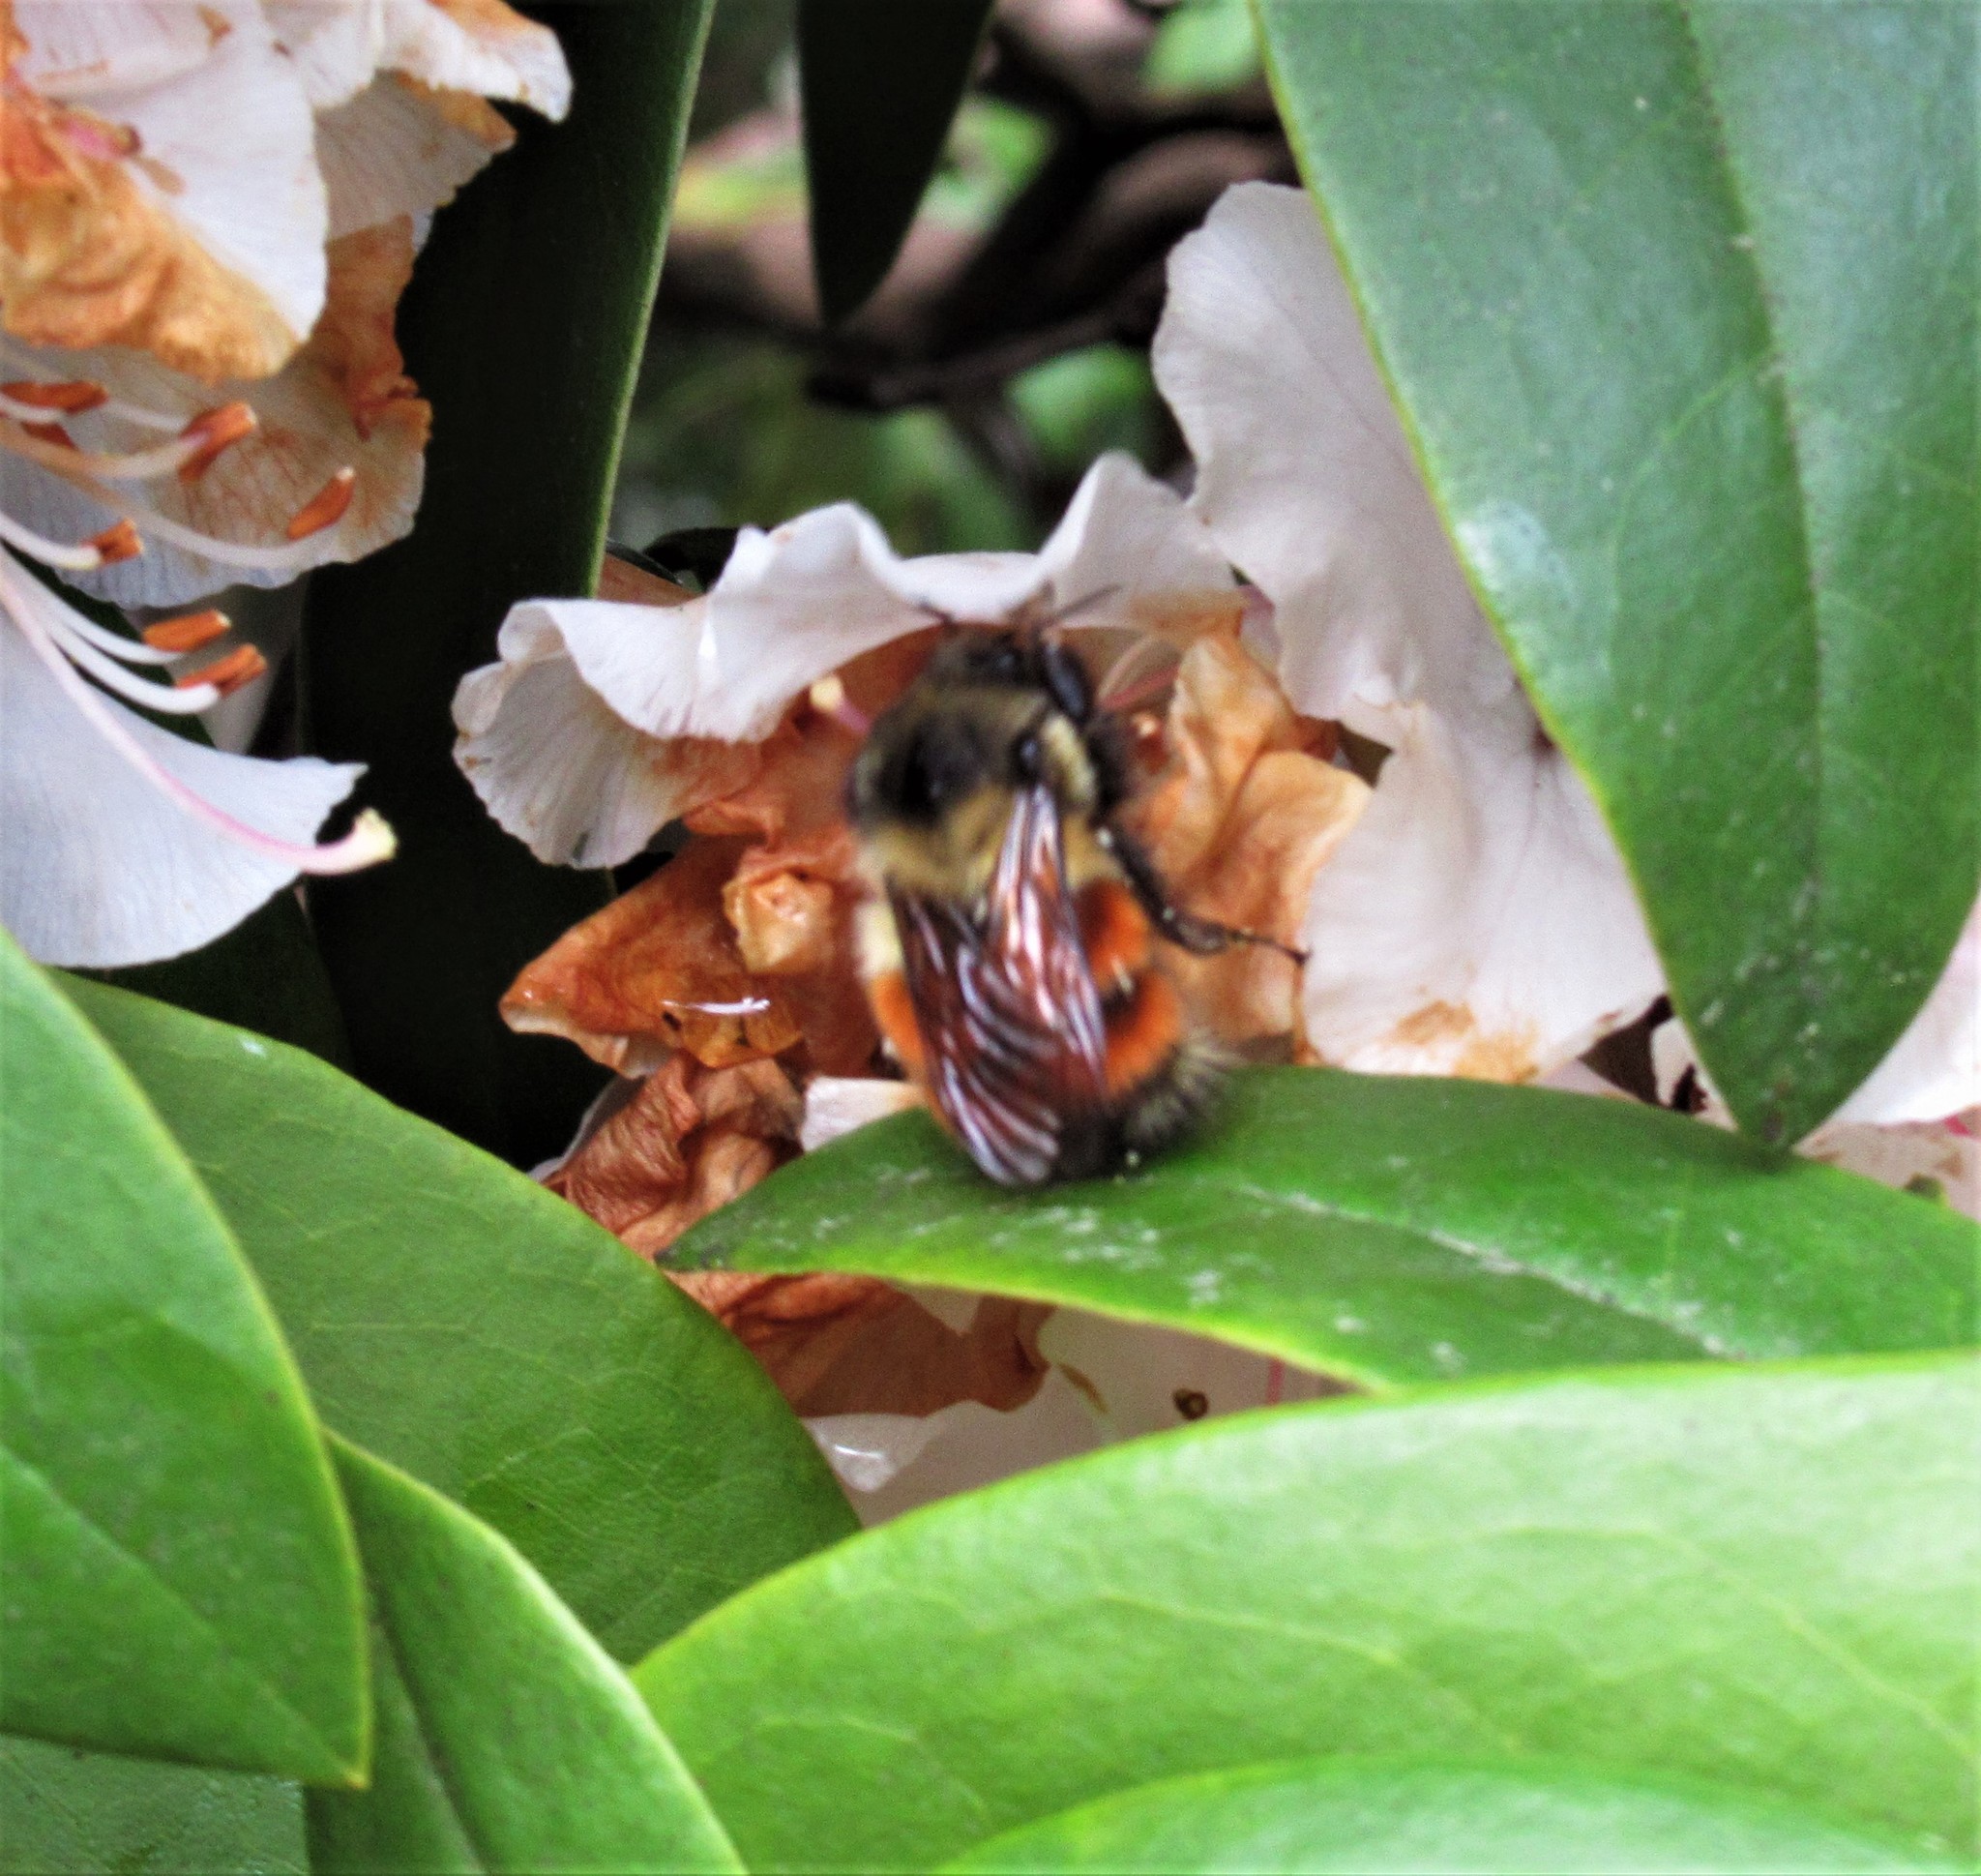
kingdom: Animalia
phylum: Arthropoda
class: Insecta
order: Hymenoptera
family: Apidae
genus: Bombus
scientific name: Bombus melanopygus
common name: Black tail bumble bee
